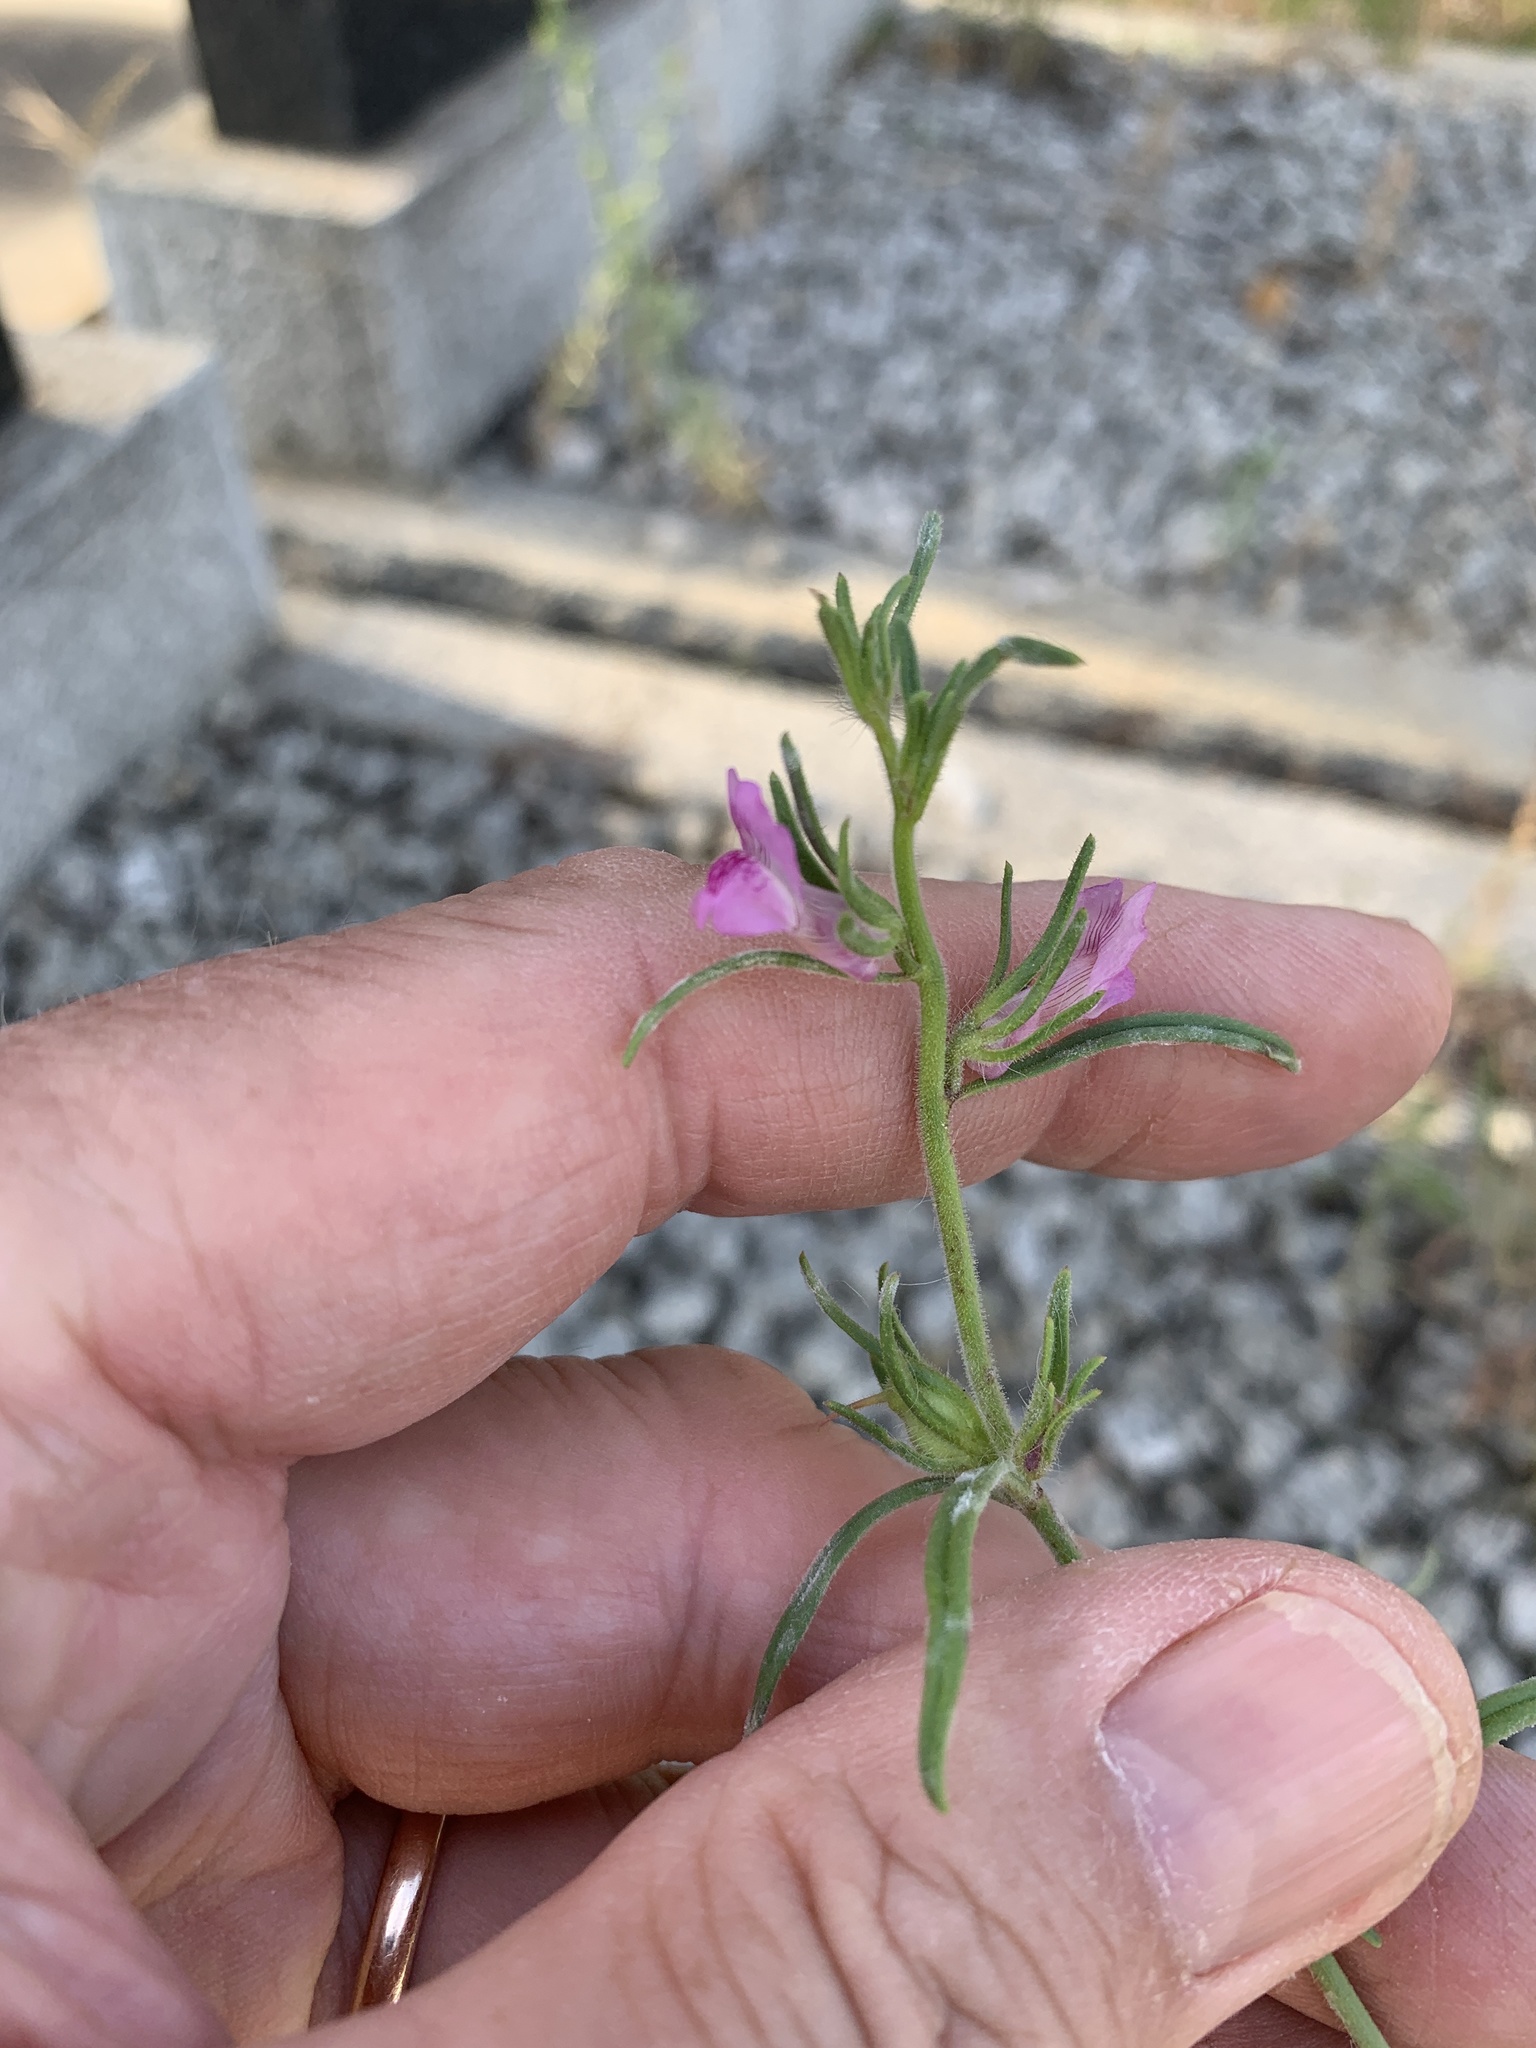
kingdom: Plantae
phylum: Tracheophyta
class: Magnoliopsida
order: Lamiales
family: Plantaginaceae
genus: Misopates
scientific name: Misopates orontium
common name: Weasel's-snout
